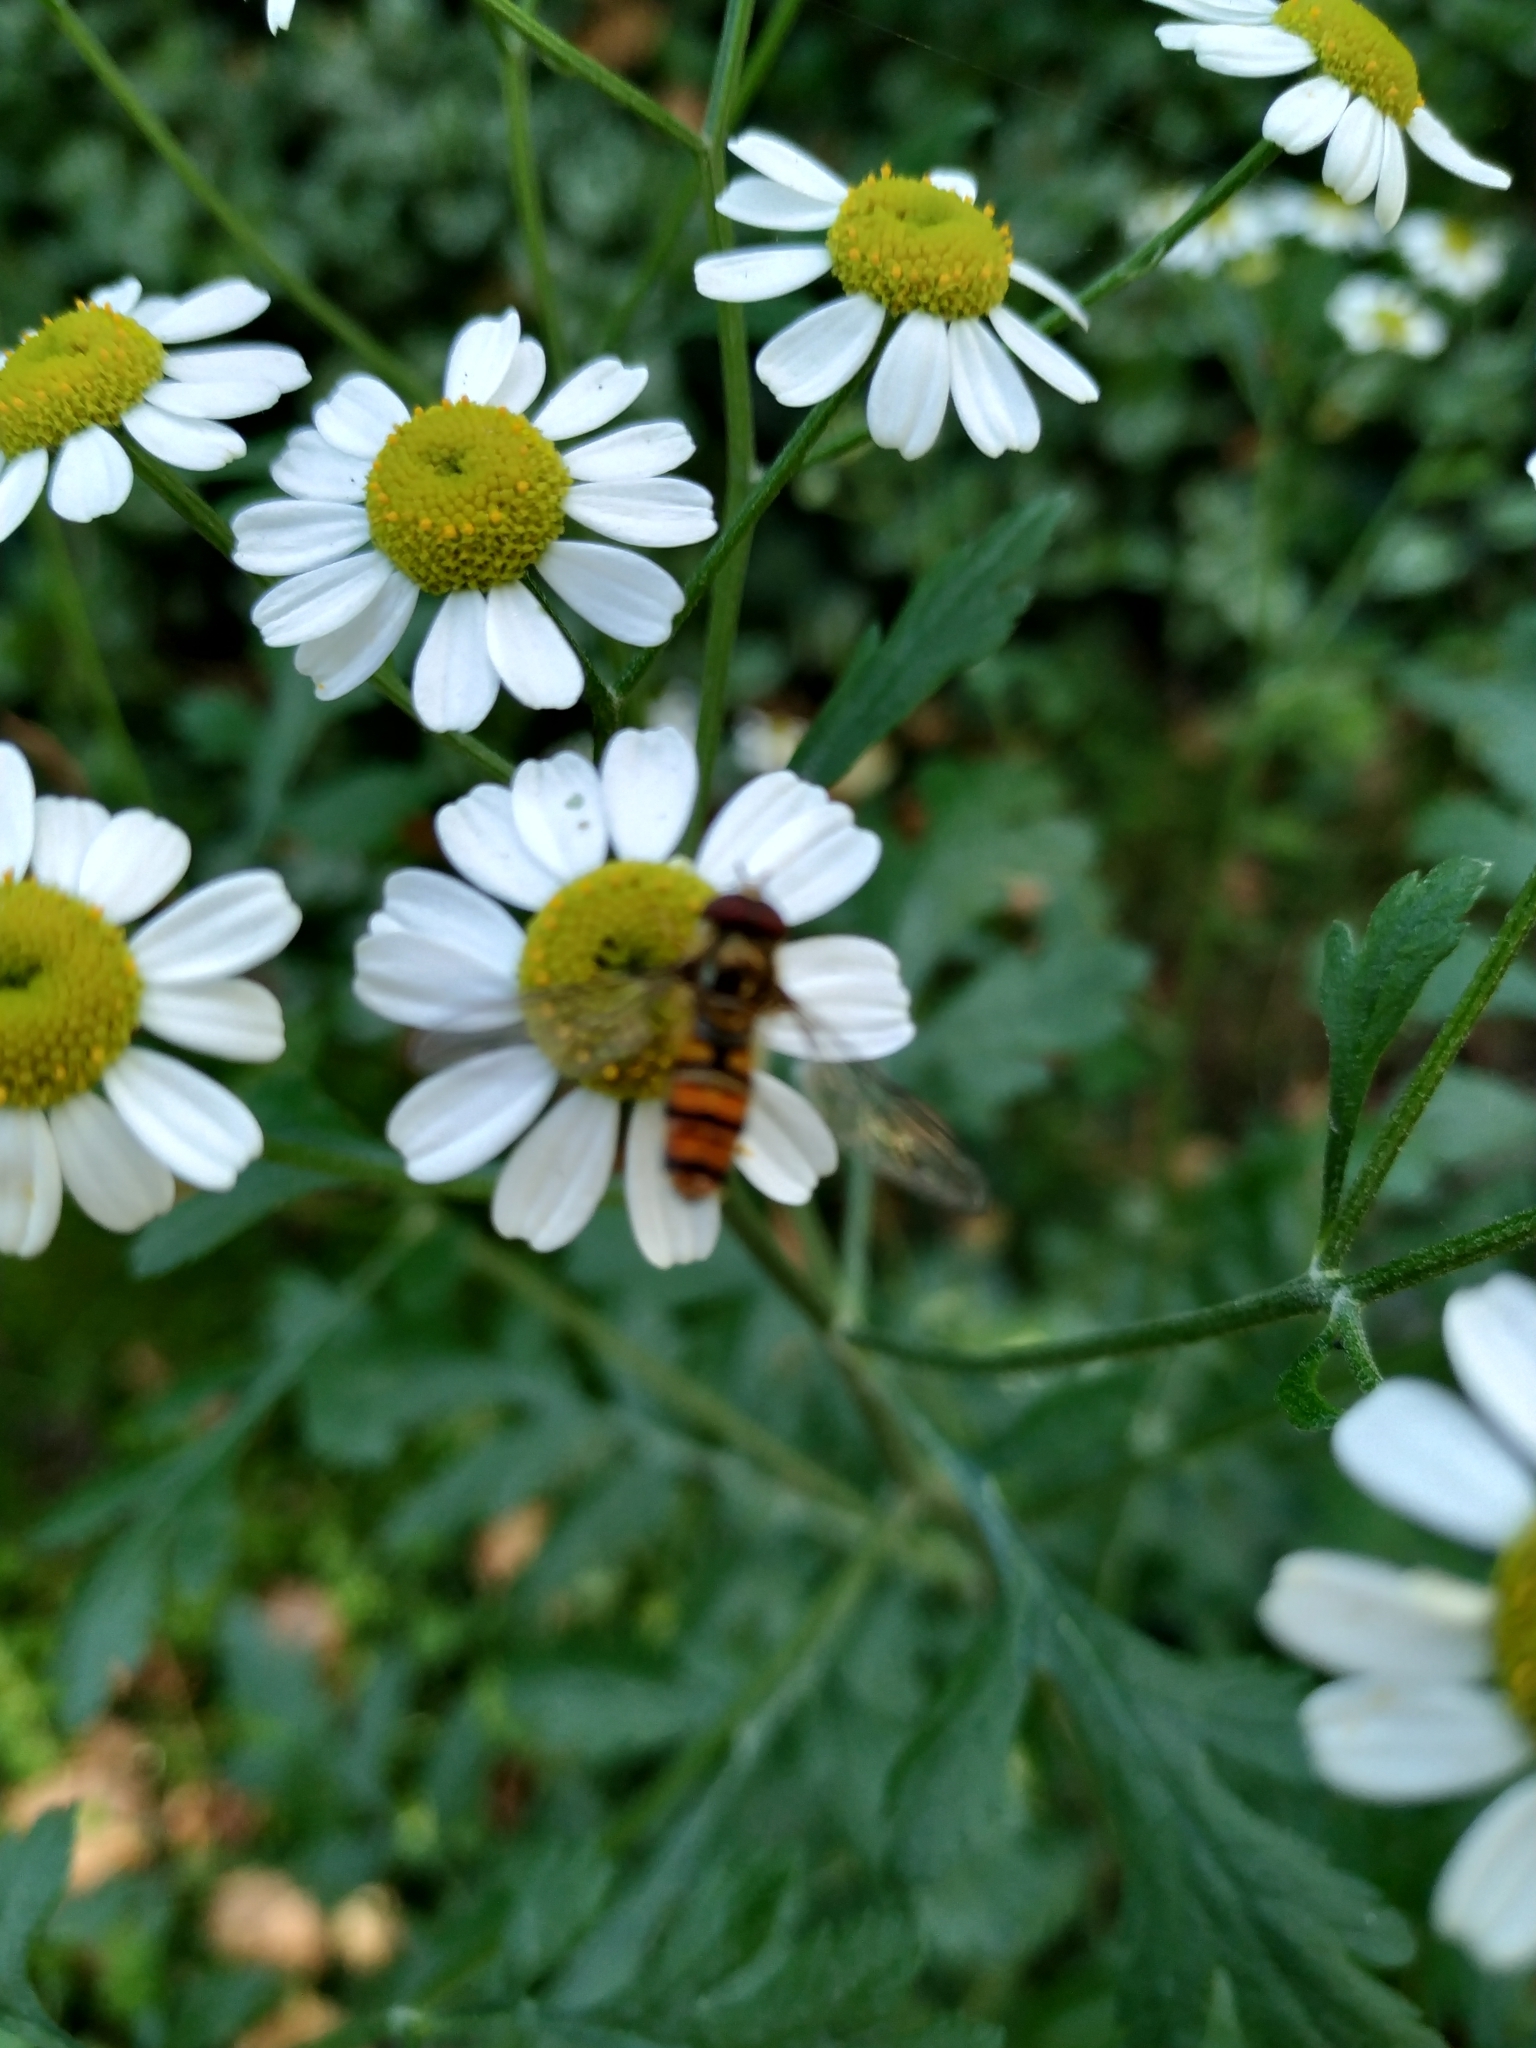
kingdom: Animalia
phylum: Arthropoda
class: Insecta
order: Diptera
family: Syrphidae
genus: Episyrphus
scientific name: Episyrphus balteatus
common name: Marmalade hoverfly
